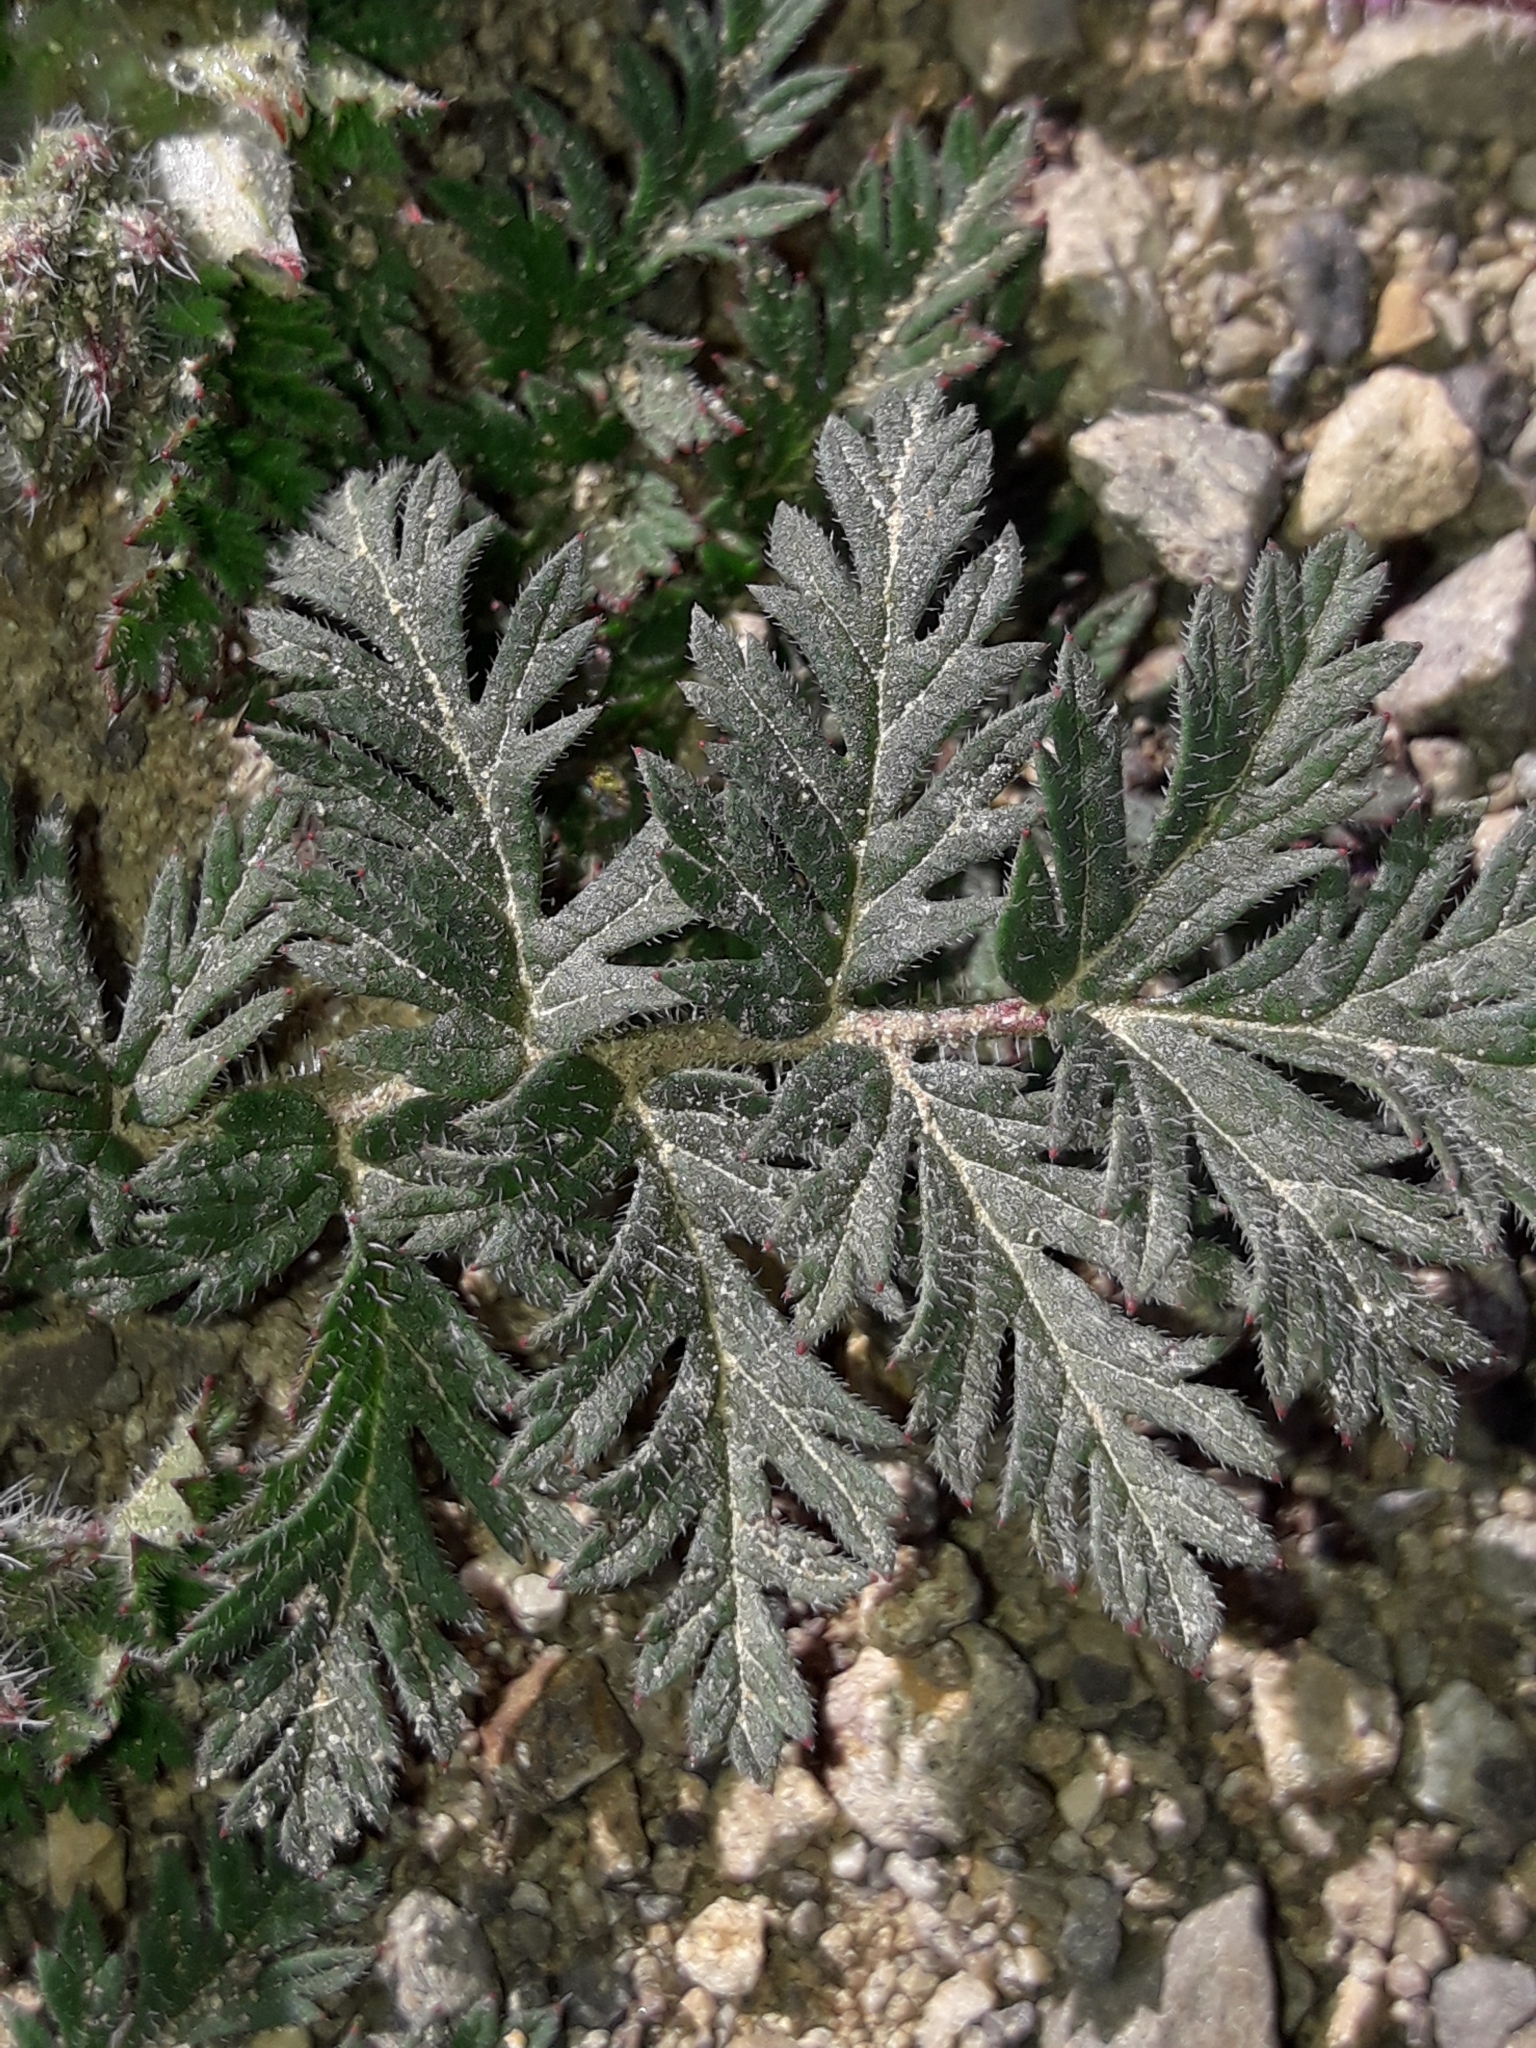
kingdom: Plantae
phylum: Tracheophyta
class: Magnoliopsida
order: Geraniales
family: Geraniaceae
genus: Erodium
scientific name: Erodium cicutarium
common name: Common stork's-bill
